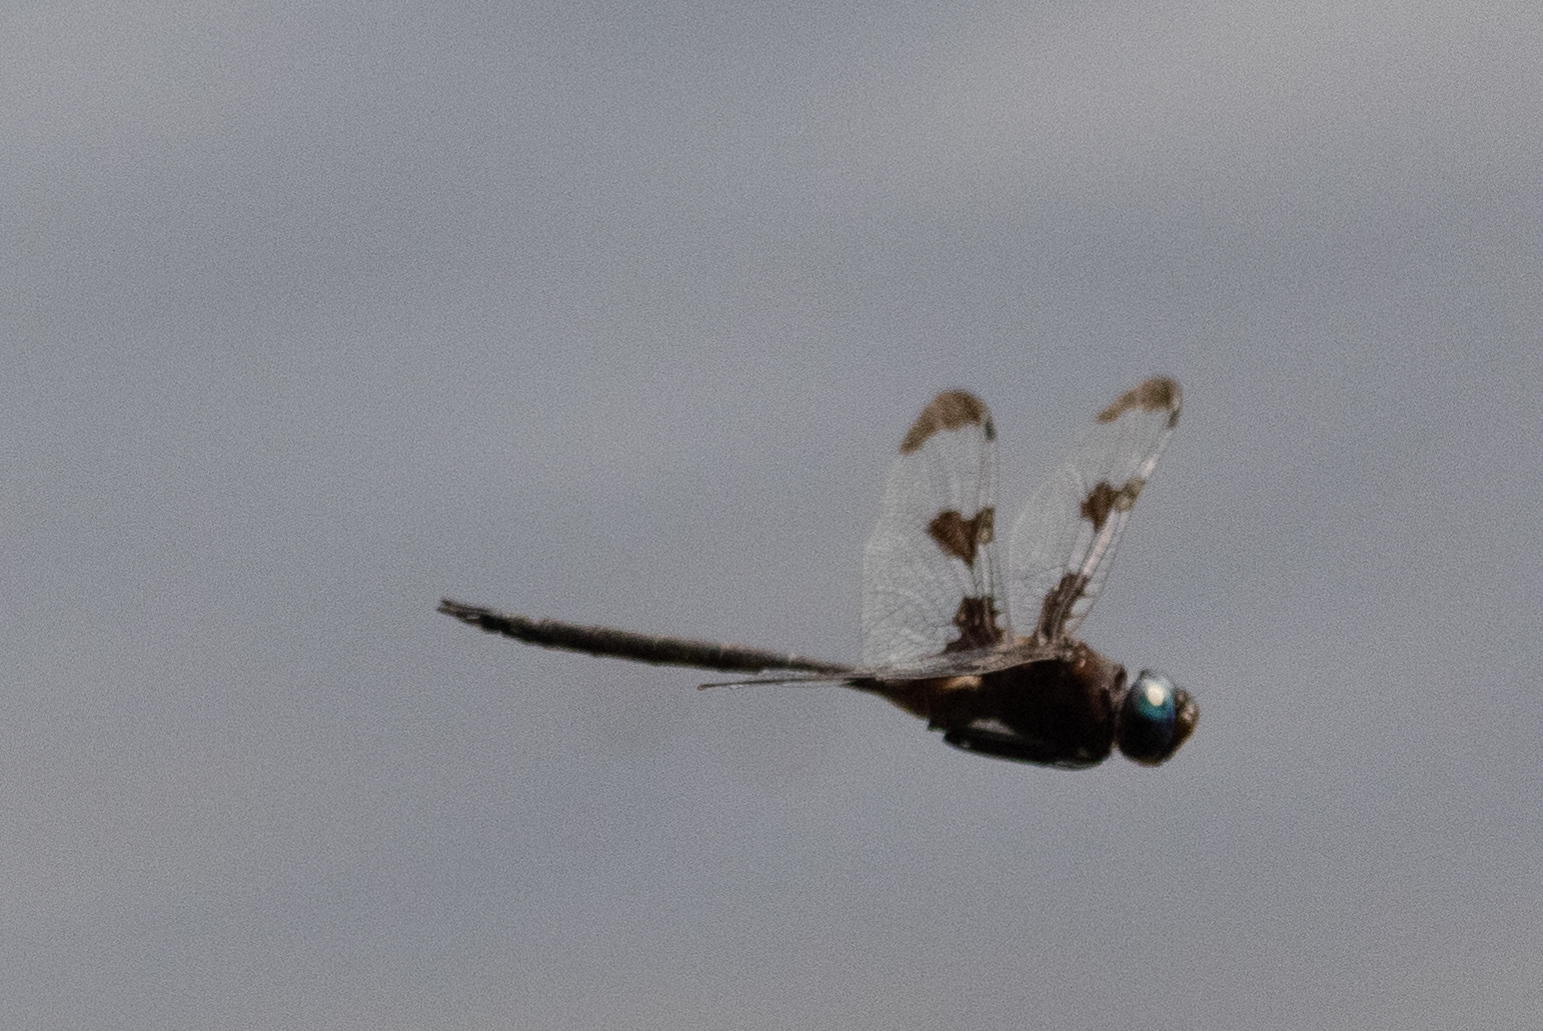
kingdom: Animalia
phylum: Arthropoda
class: Insecta
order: Odonata
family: Corduliidae
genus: Epitheca
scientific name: Epitheca princeps
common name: Prince baskettail
